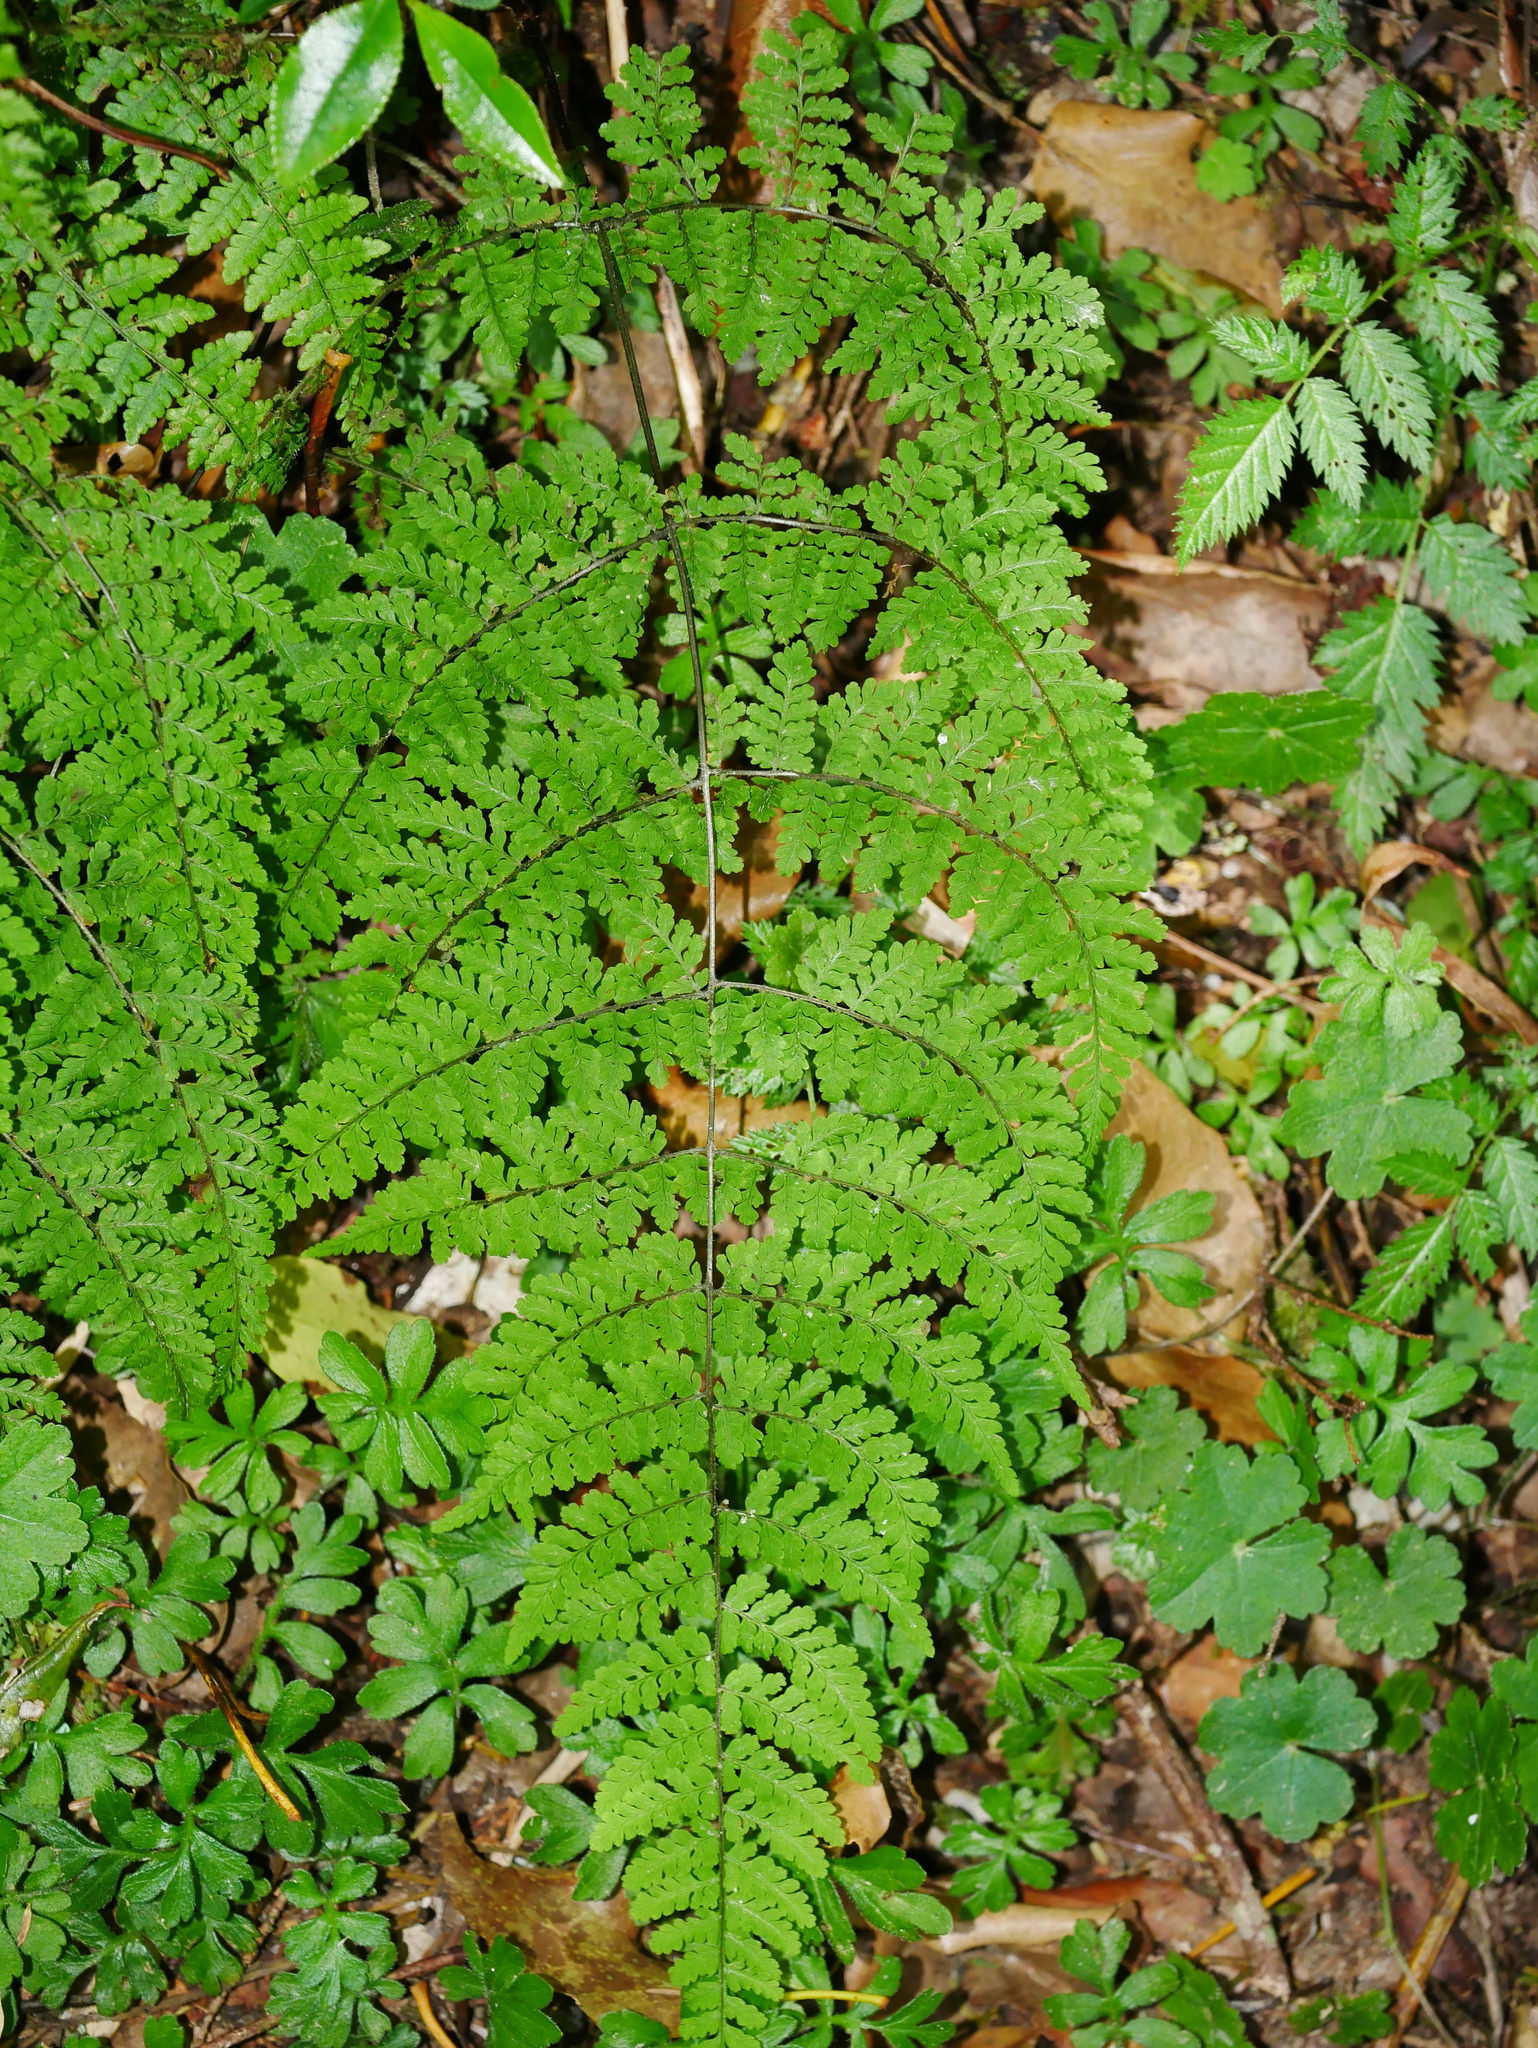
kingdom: Plantae
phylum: Tracheophyta
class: Polypodiopsida
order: Polypodiales
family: Cystopteridaceae
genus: Acystopteris
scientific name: Acystopteris taiwaniana
